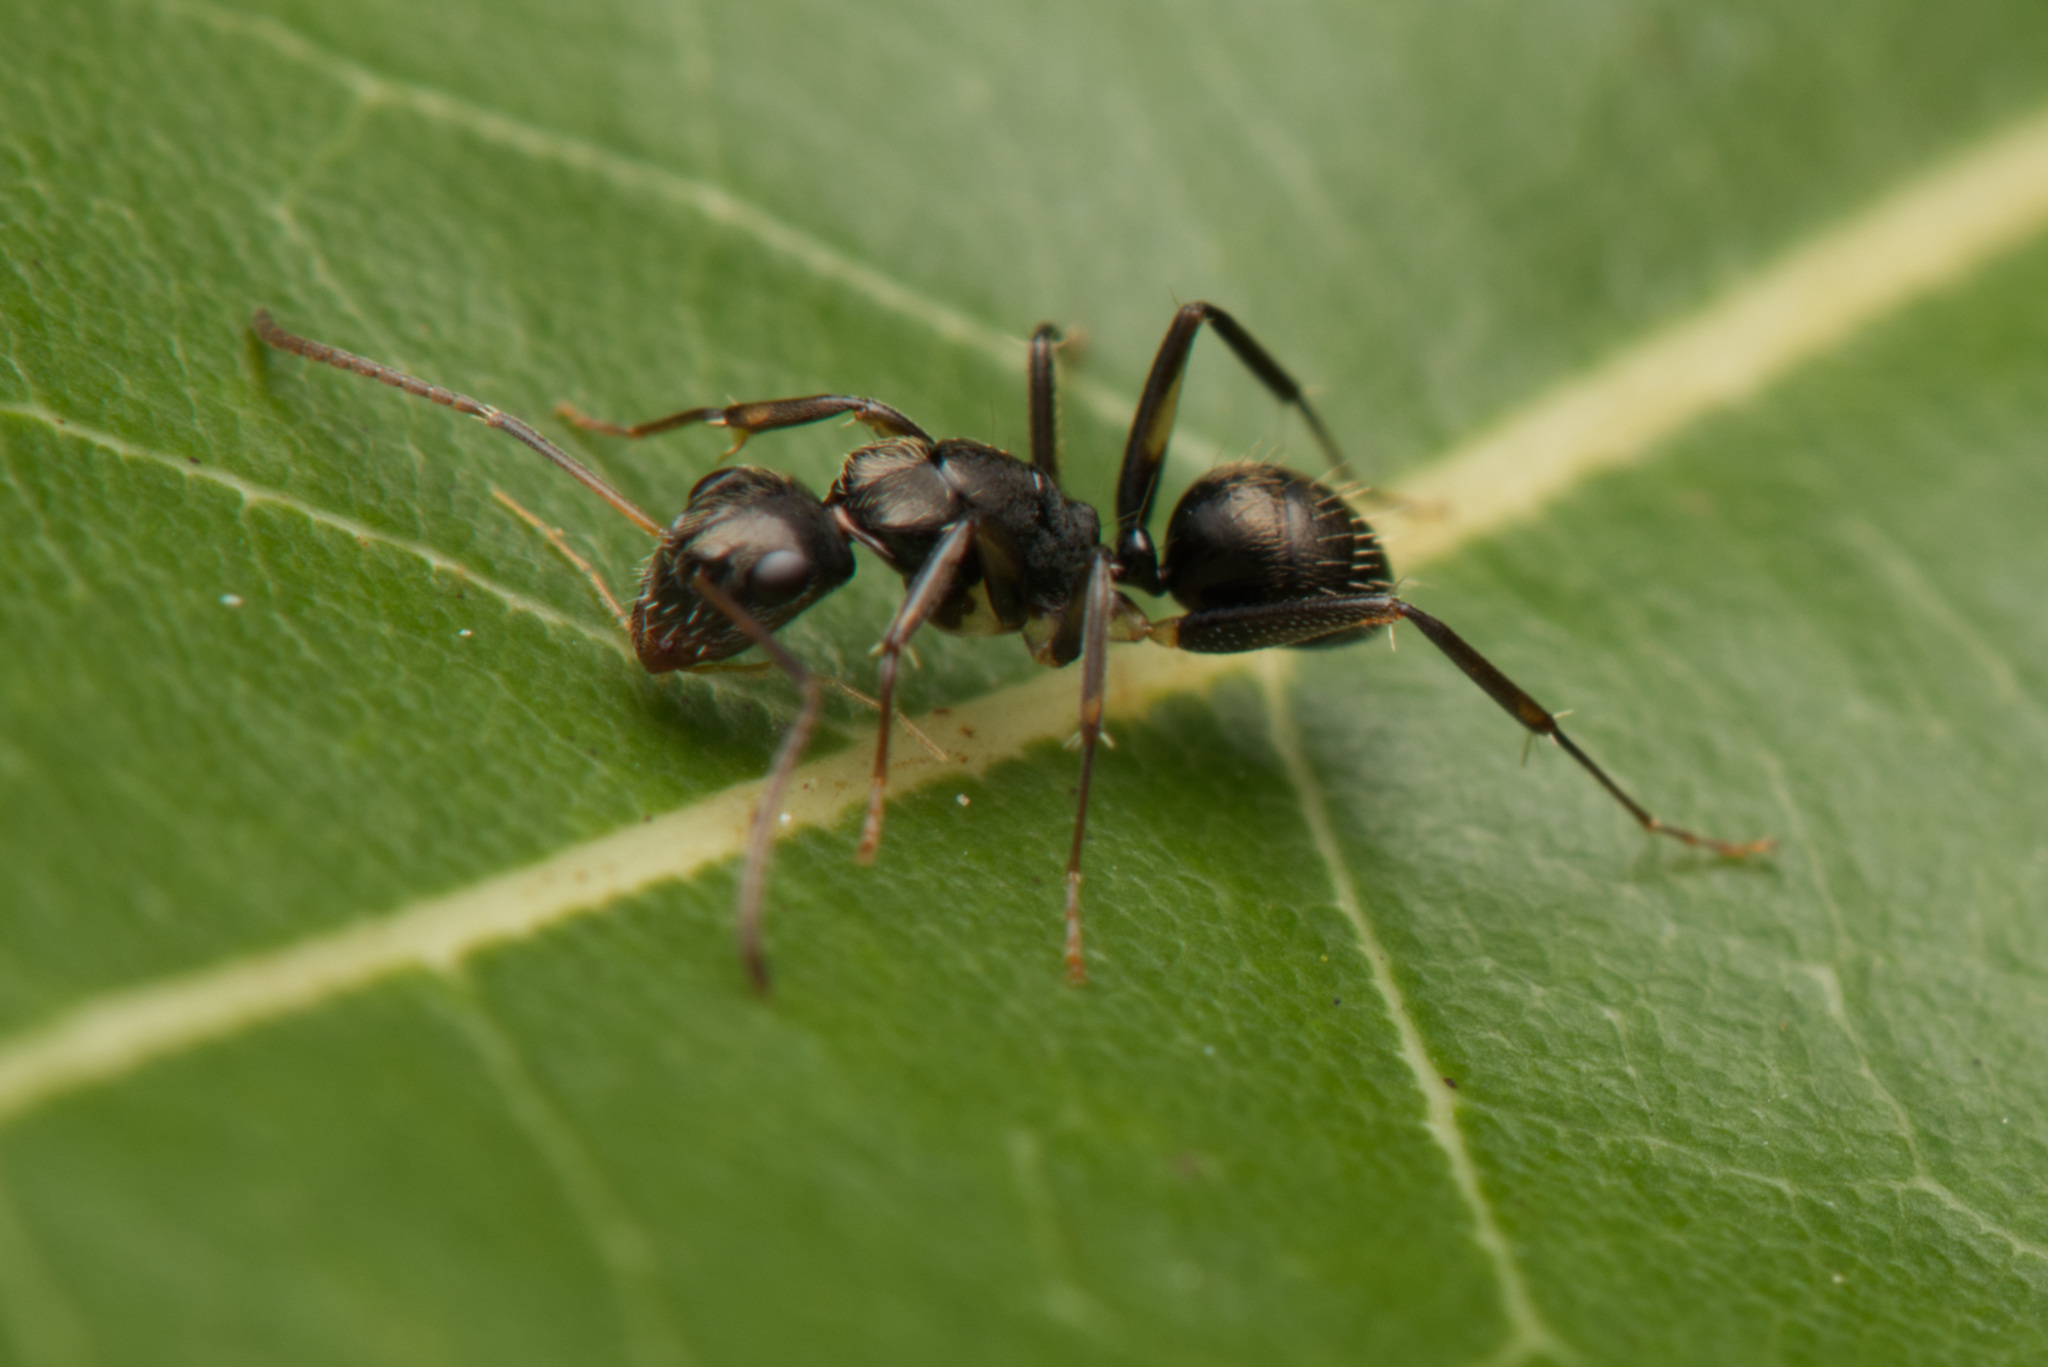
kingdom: Animalia
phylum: Arthropoda
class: Insecta
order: Hymenoptera
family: Formicidae
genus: Camponotus
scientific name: Camponotus froggatti
